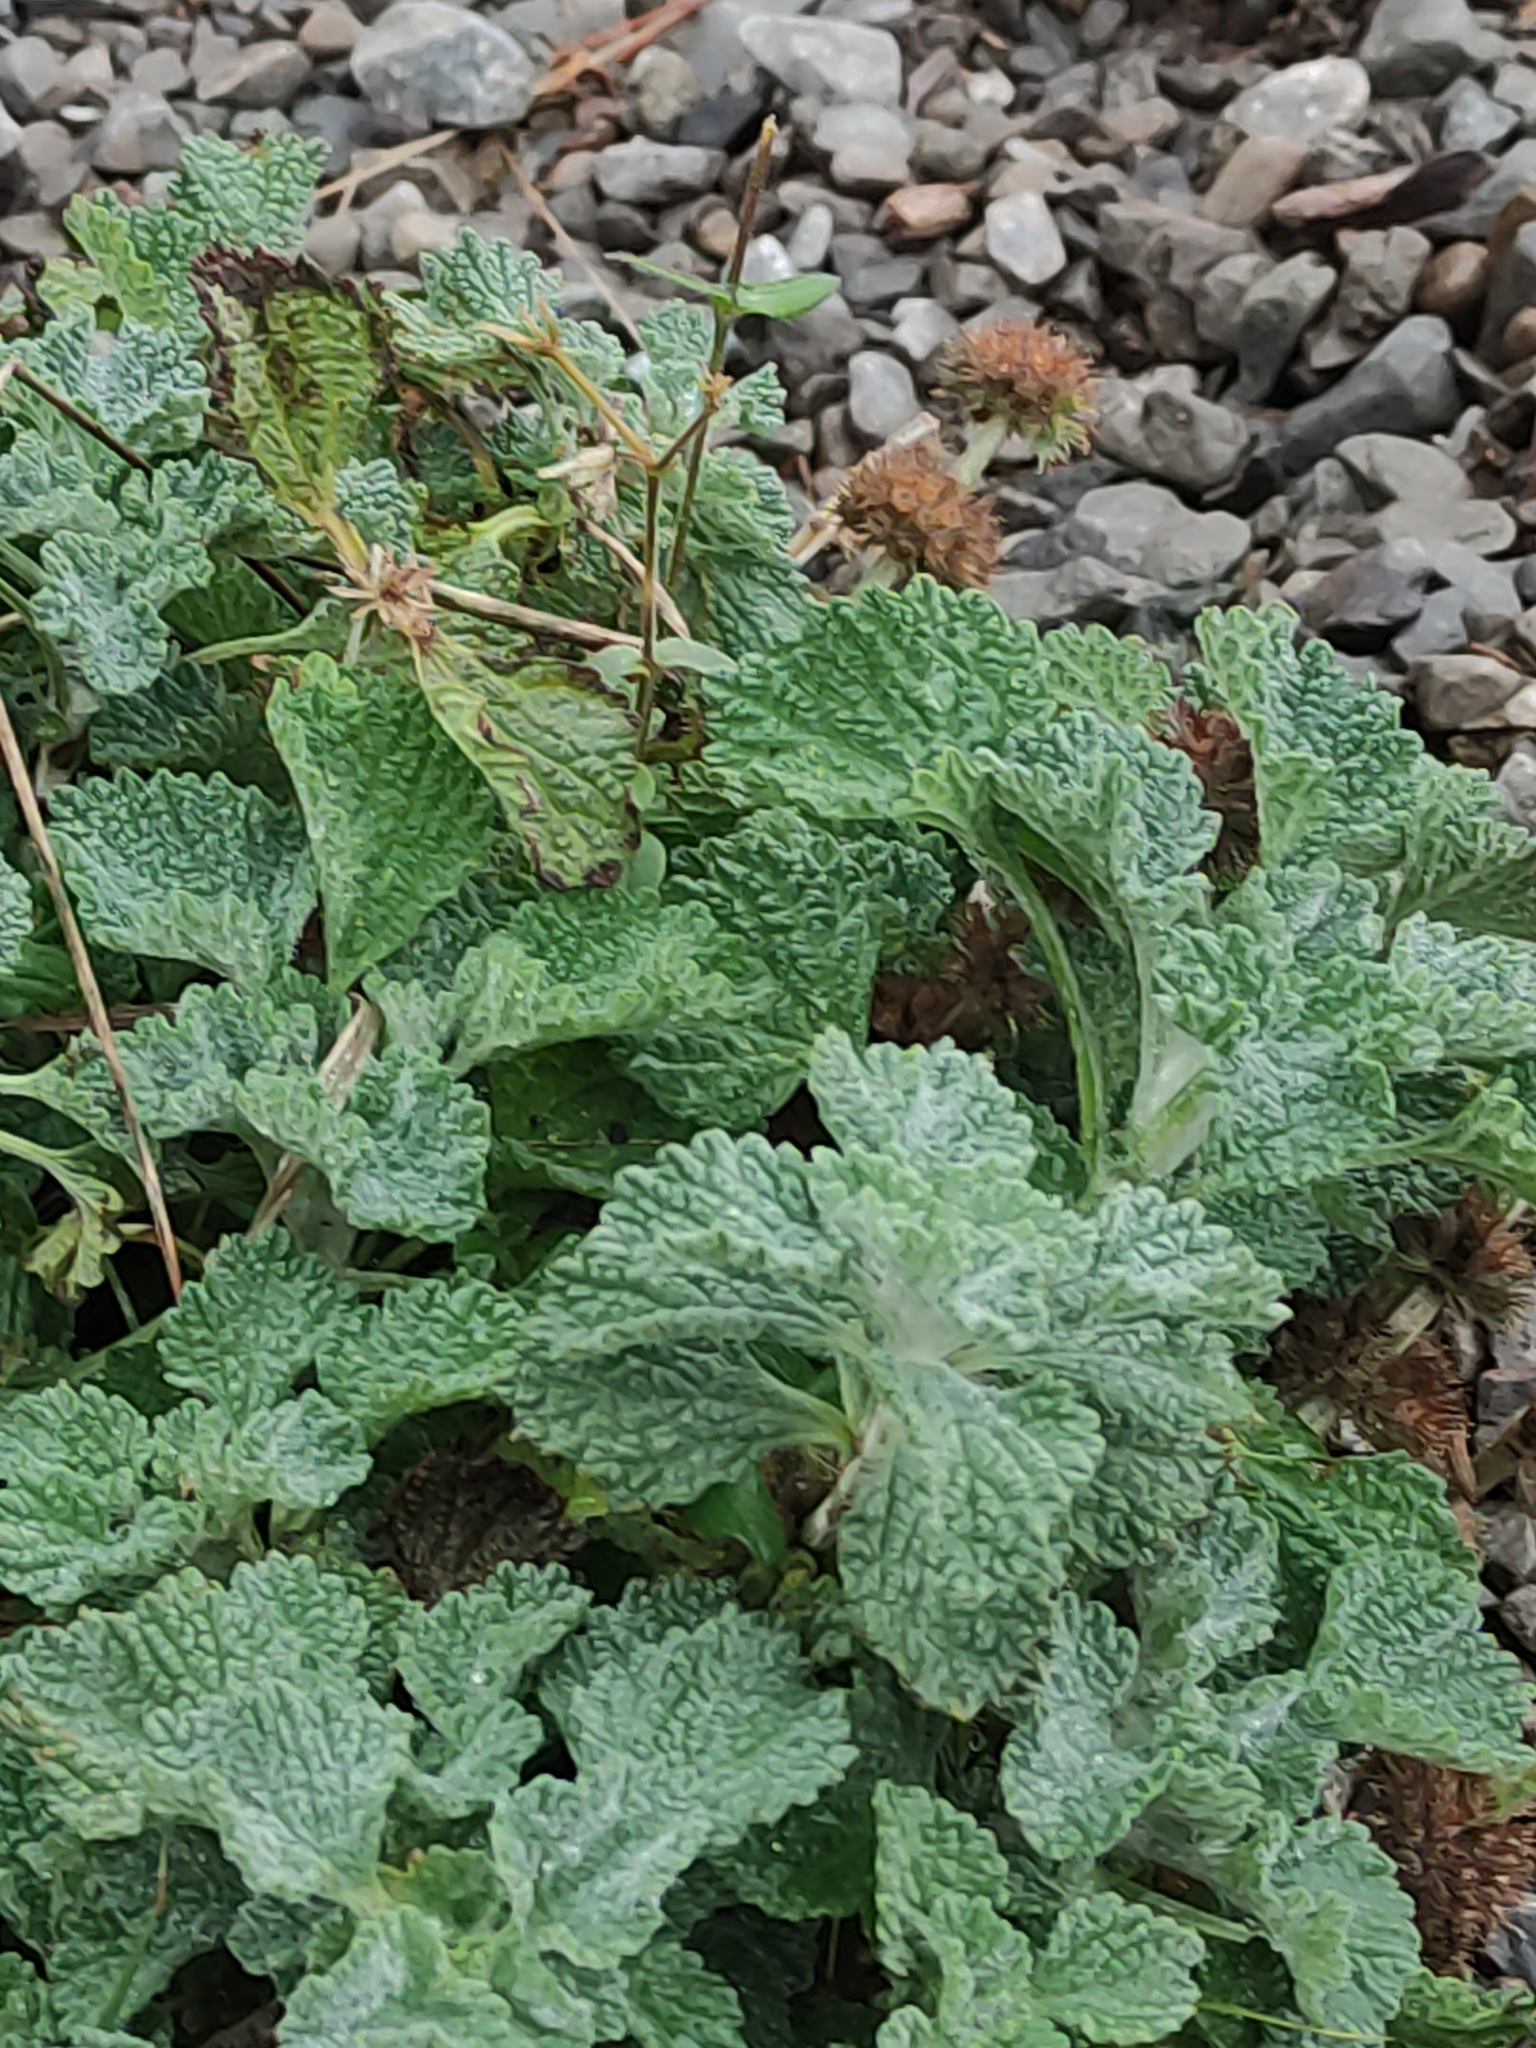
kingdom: Plantae
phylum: Tracheophyta
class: Magnoliopsida
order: Lamiales
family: Lamiaceae
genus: Marrubium
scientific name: Marrubium vulgare
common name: Horehound
